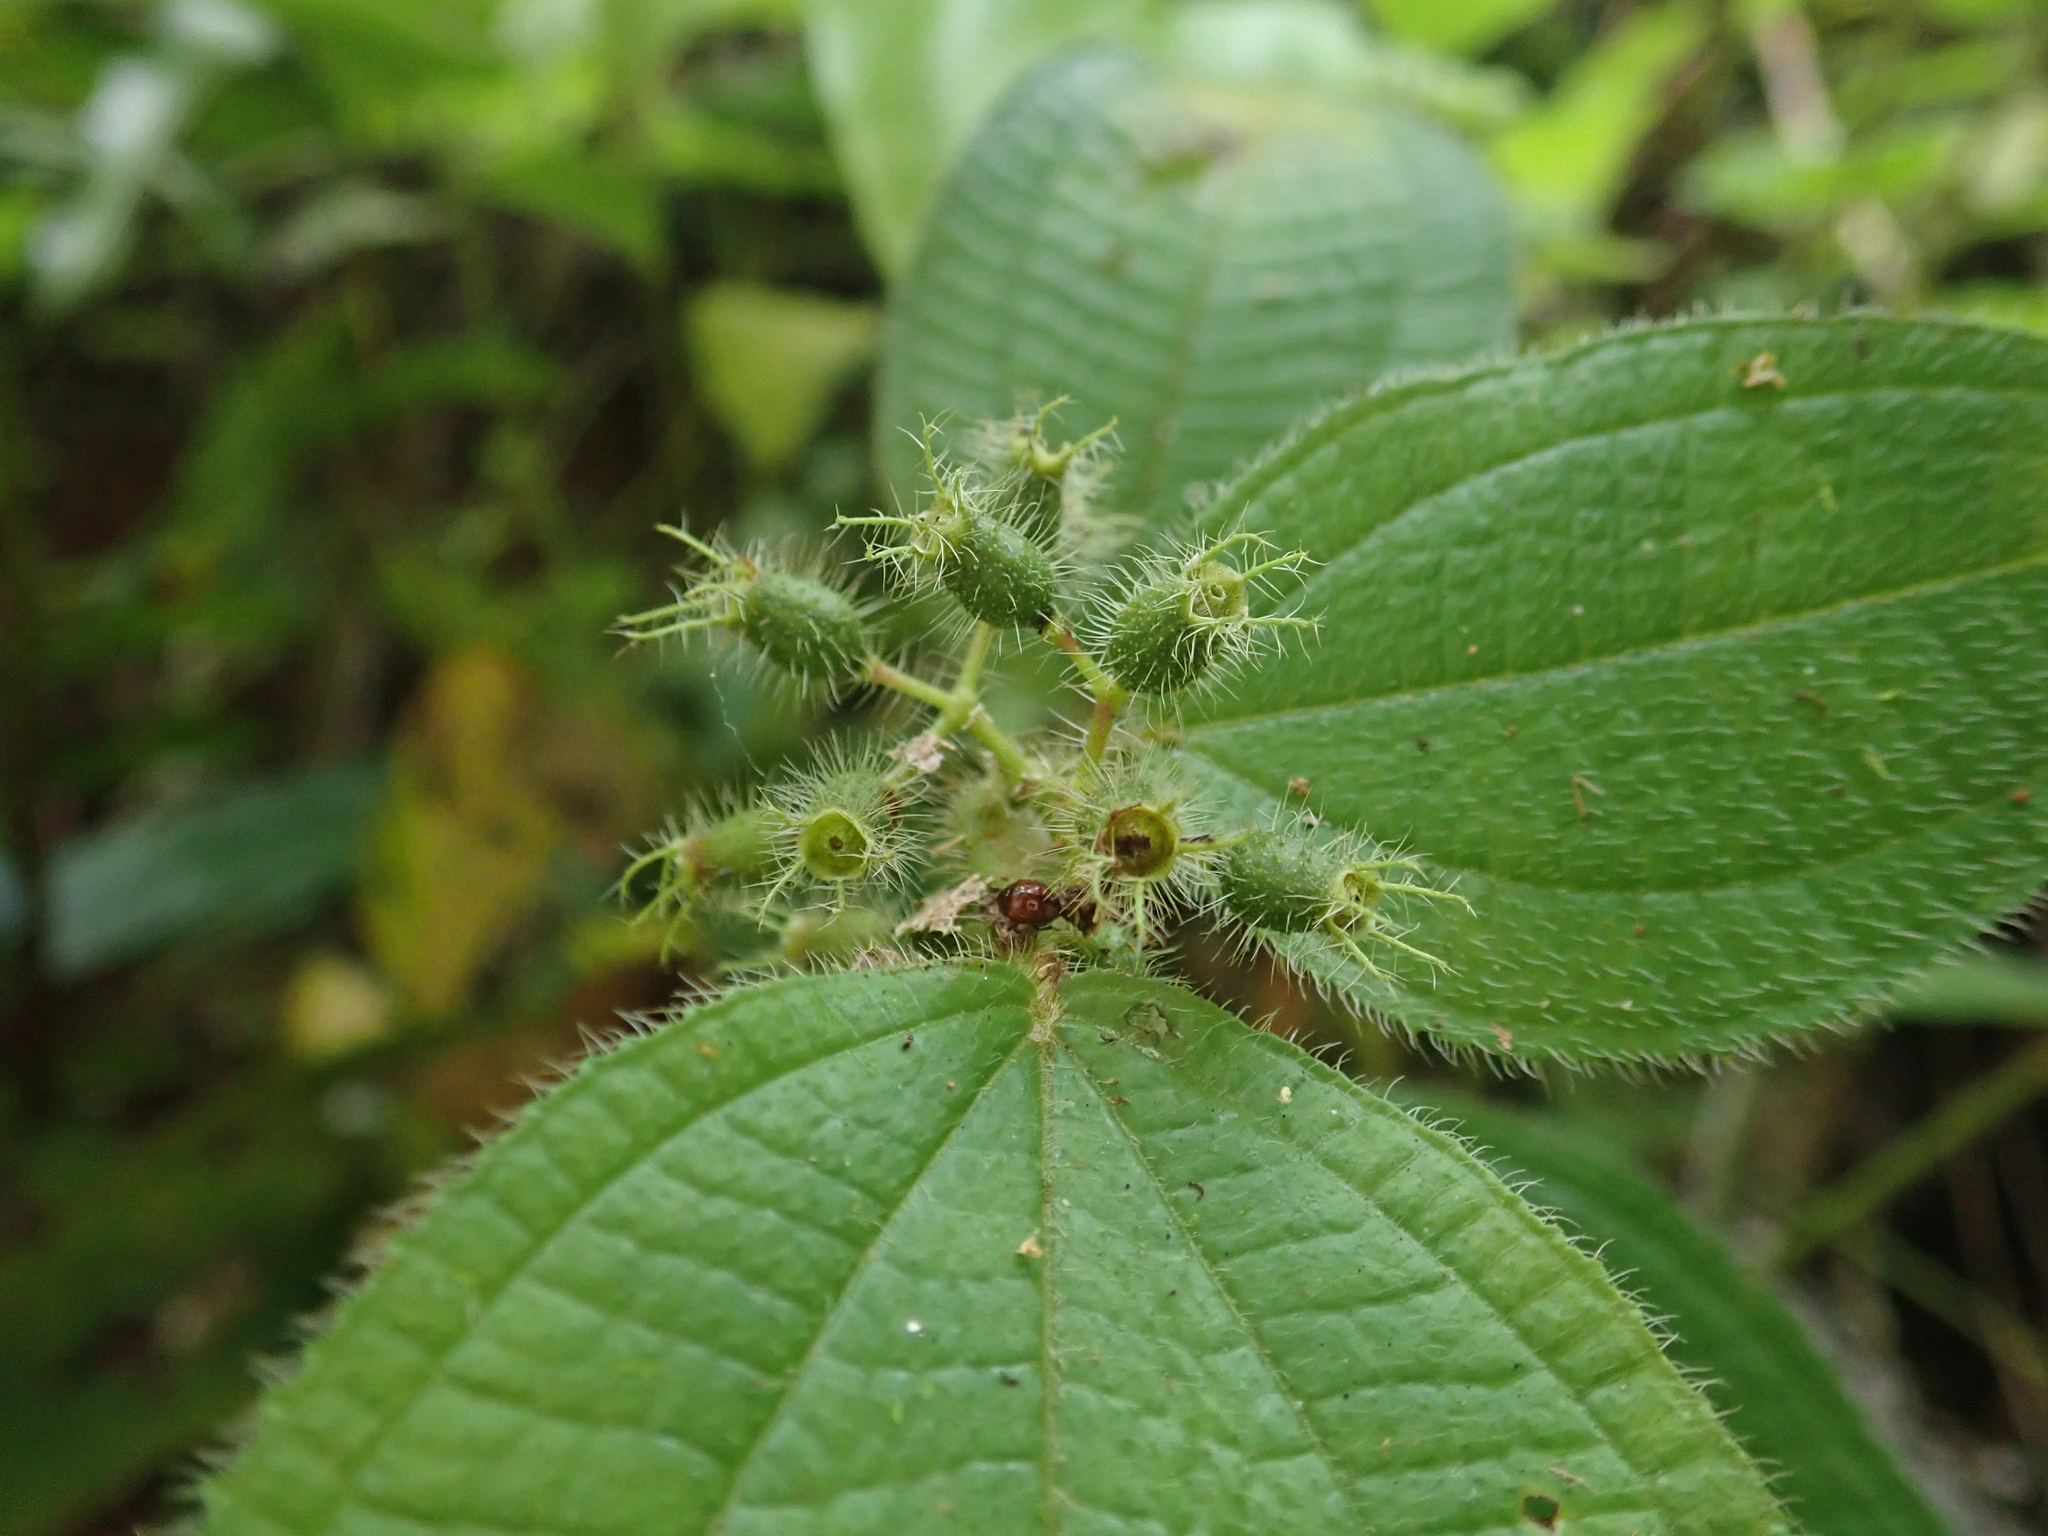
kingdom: Plantae
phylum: Tracheophyta
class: Magnoliopsida
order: Myrtales
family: Melastomataceae
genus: Miconia
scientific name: Miconia crenata
